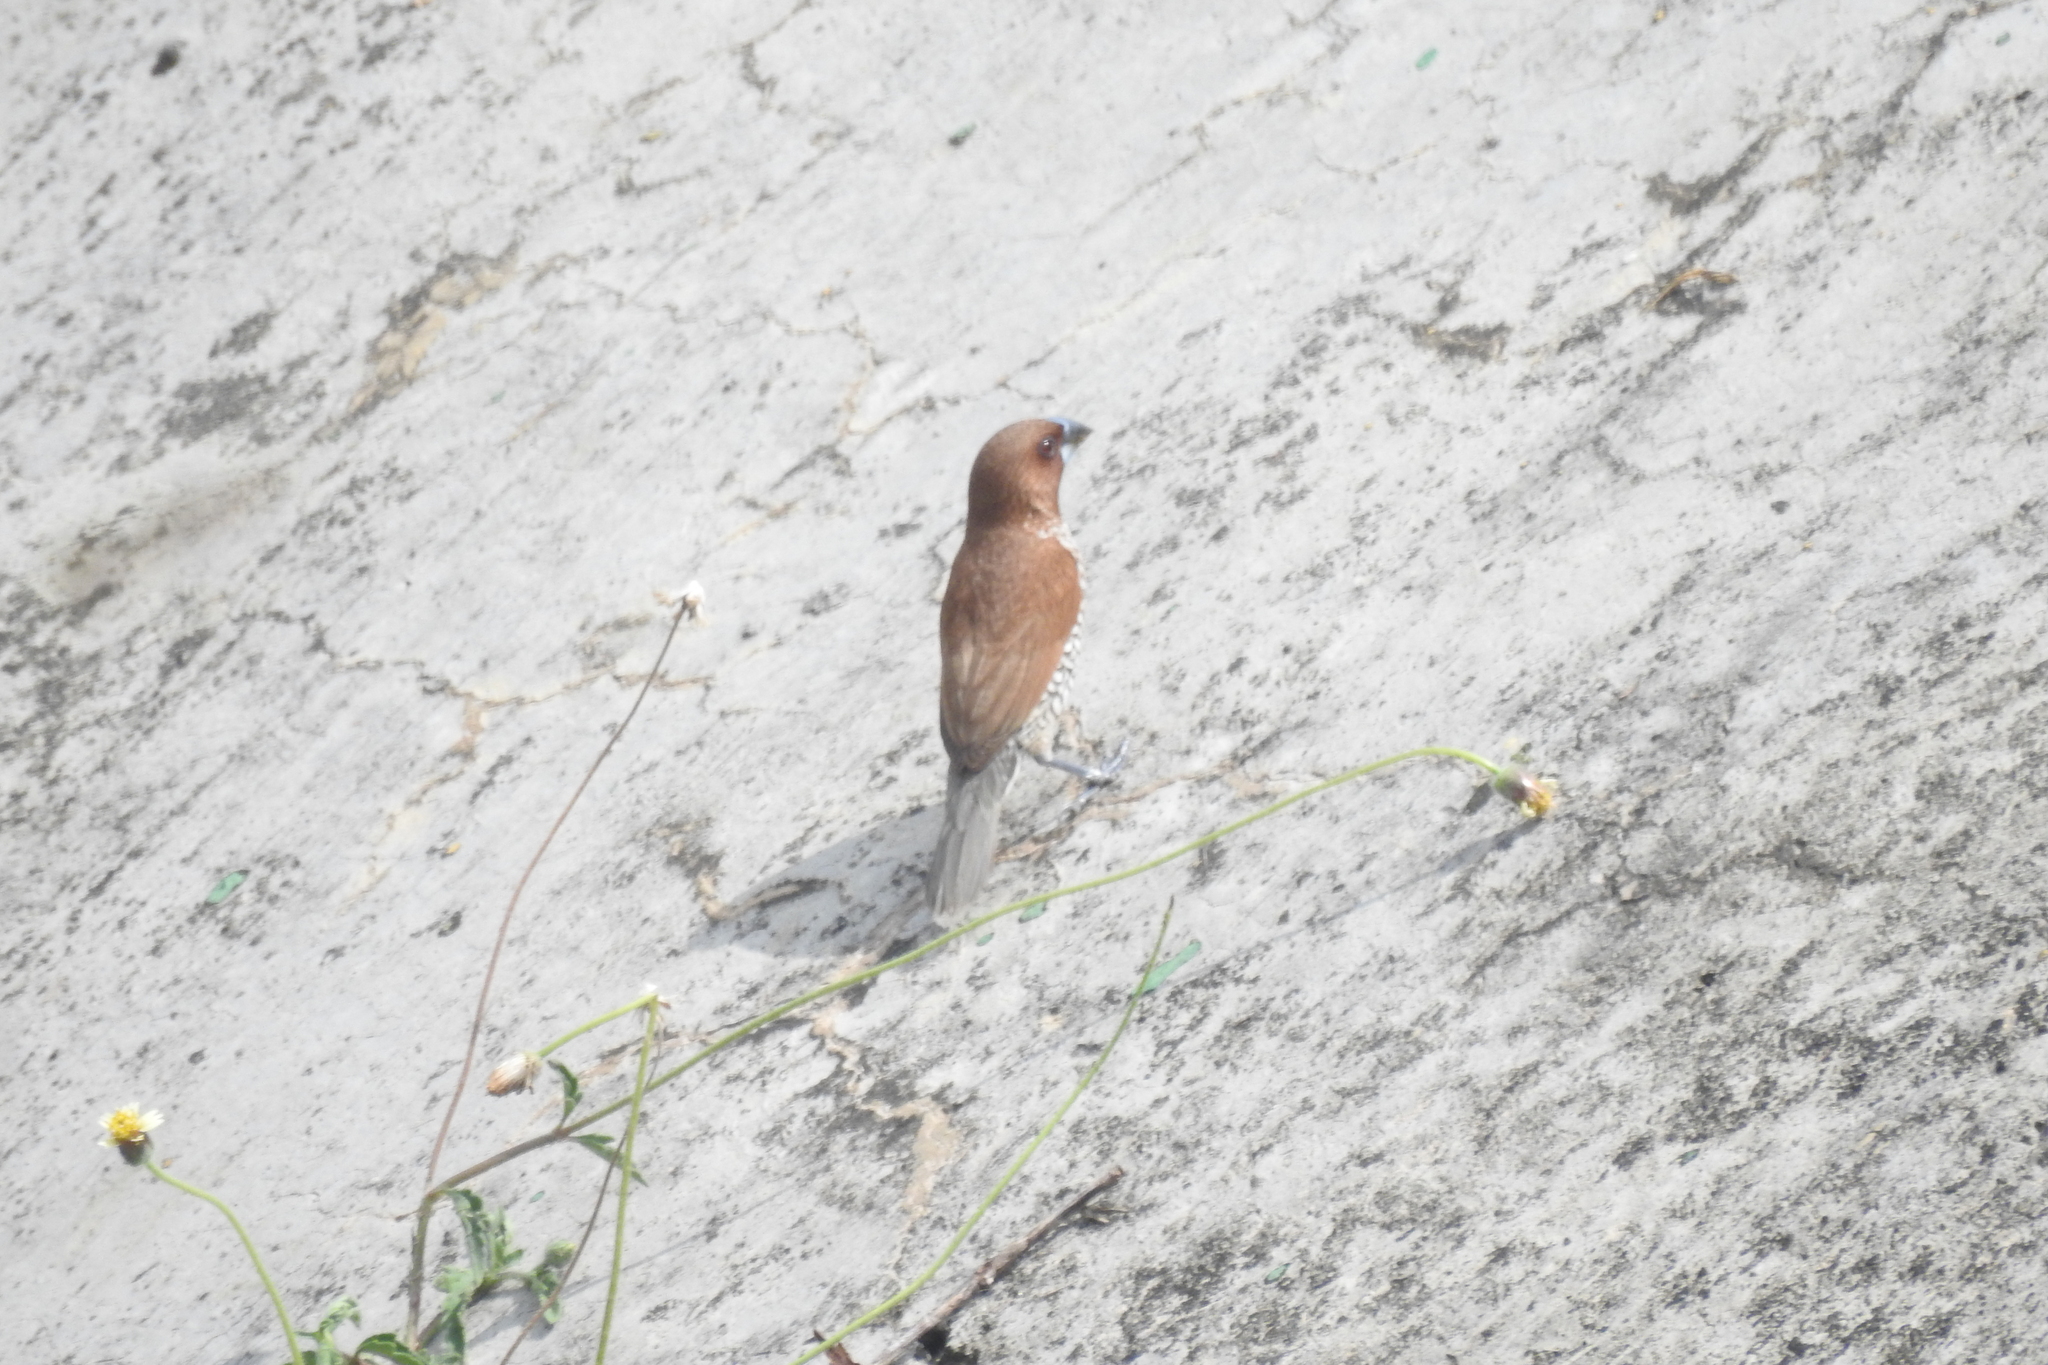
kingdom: Animalia
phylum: Chordata
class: Aves
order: Passeriformes
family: Estrildidae
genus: Lonchura
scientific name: Lonchura punctulata
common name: Scaly-breasted munia
